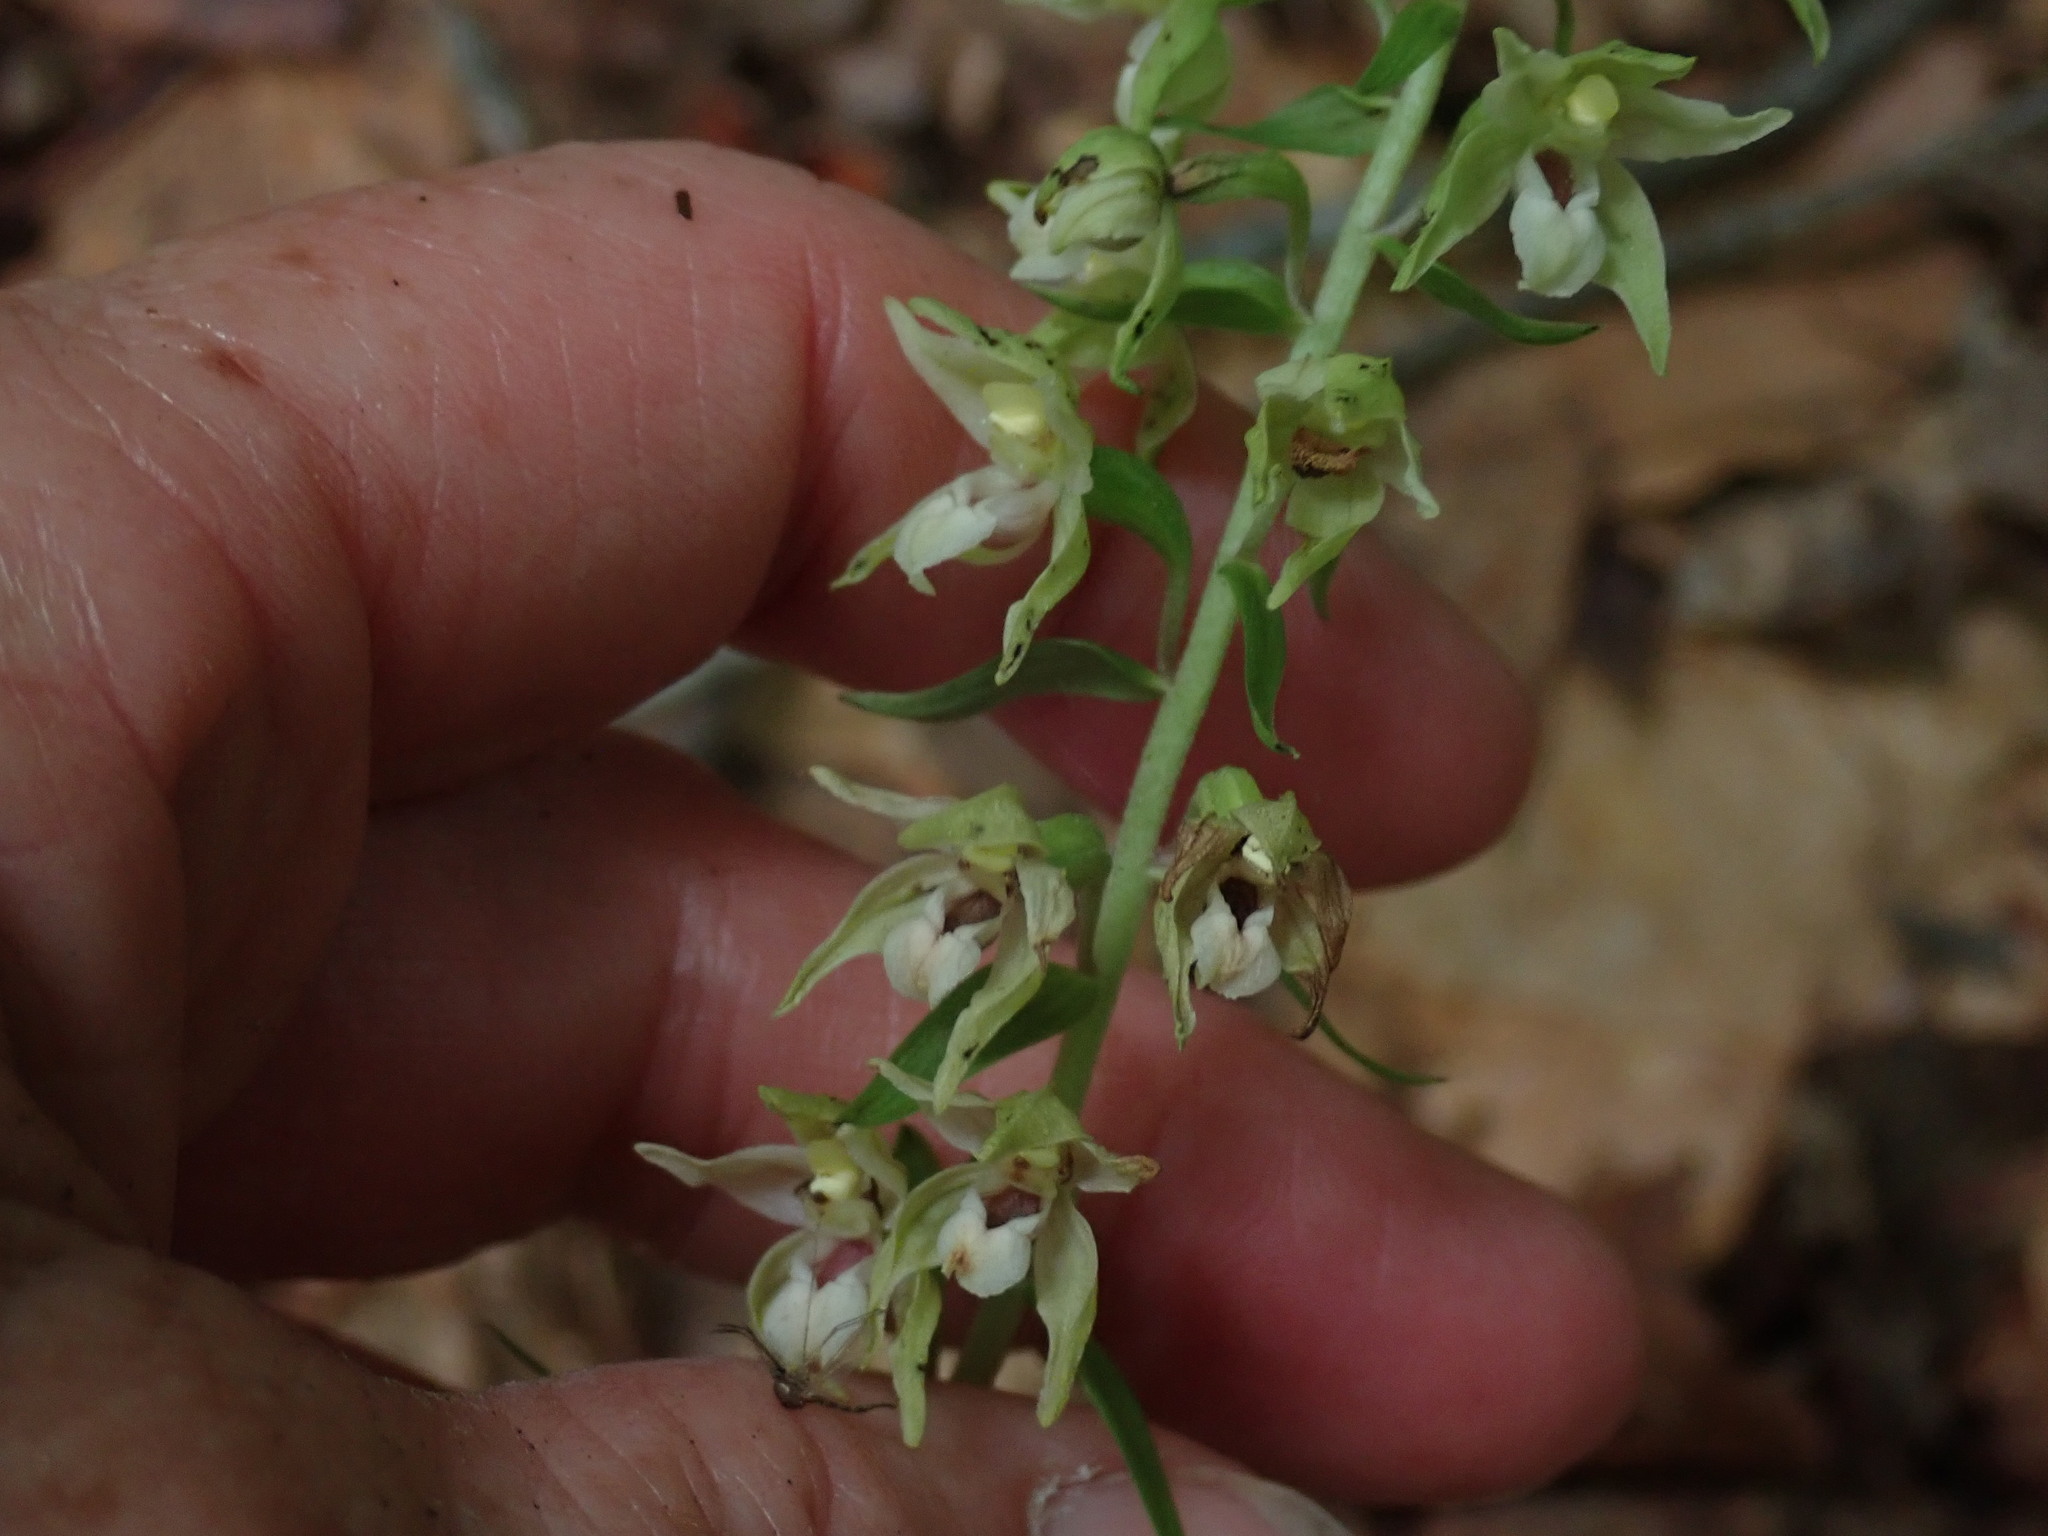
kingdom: Plantae
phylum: Tracheophyta
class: Liliopsida
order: Asparagales
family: Orchidaceae
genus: Epipactis
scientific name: Epipactis helleborine
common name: Broad-leaved helleborine
